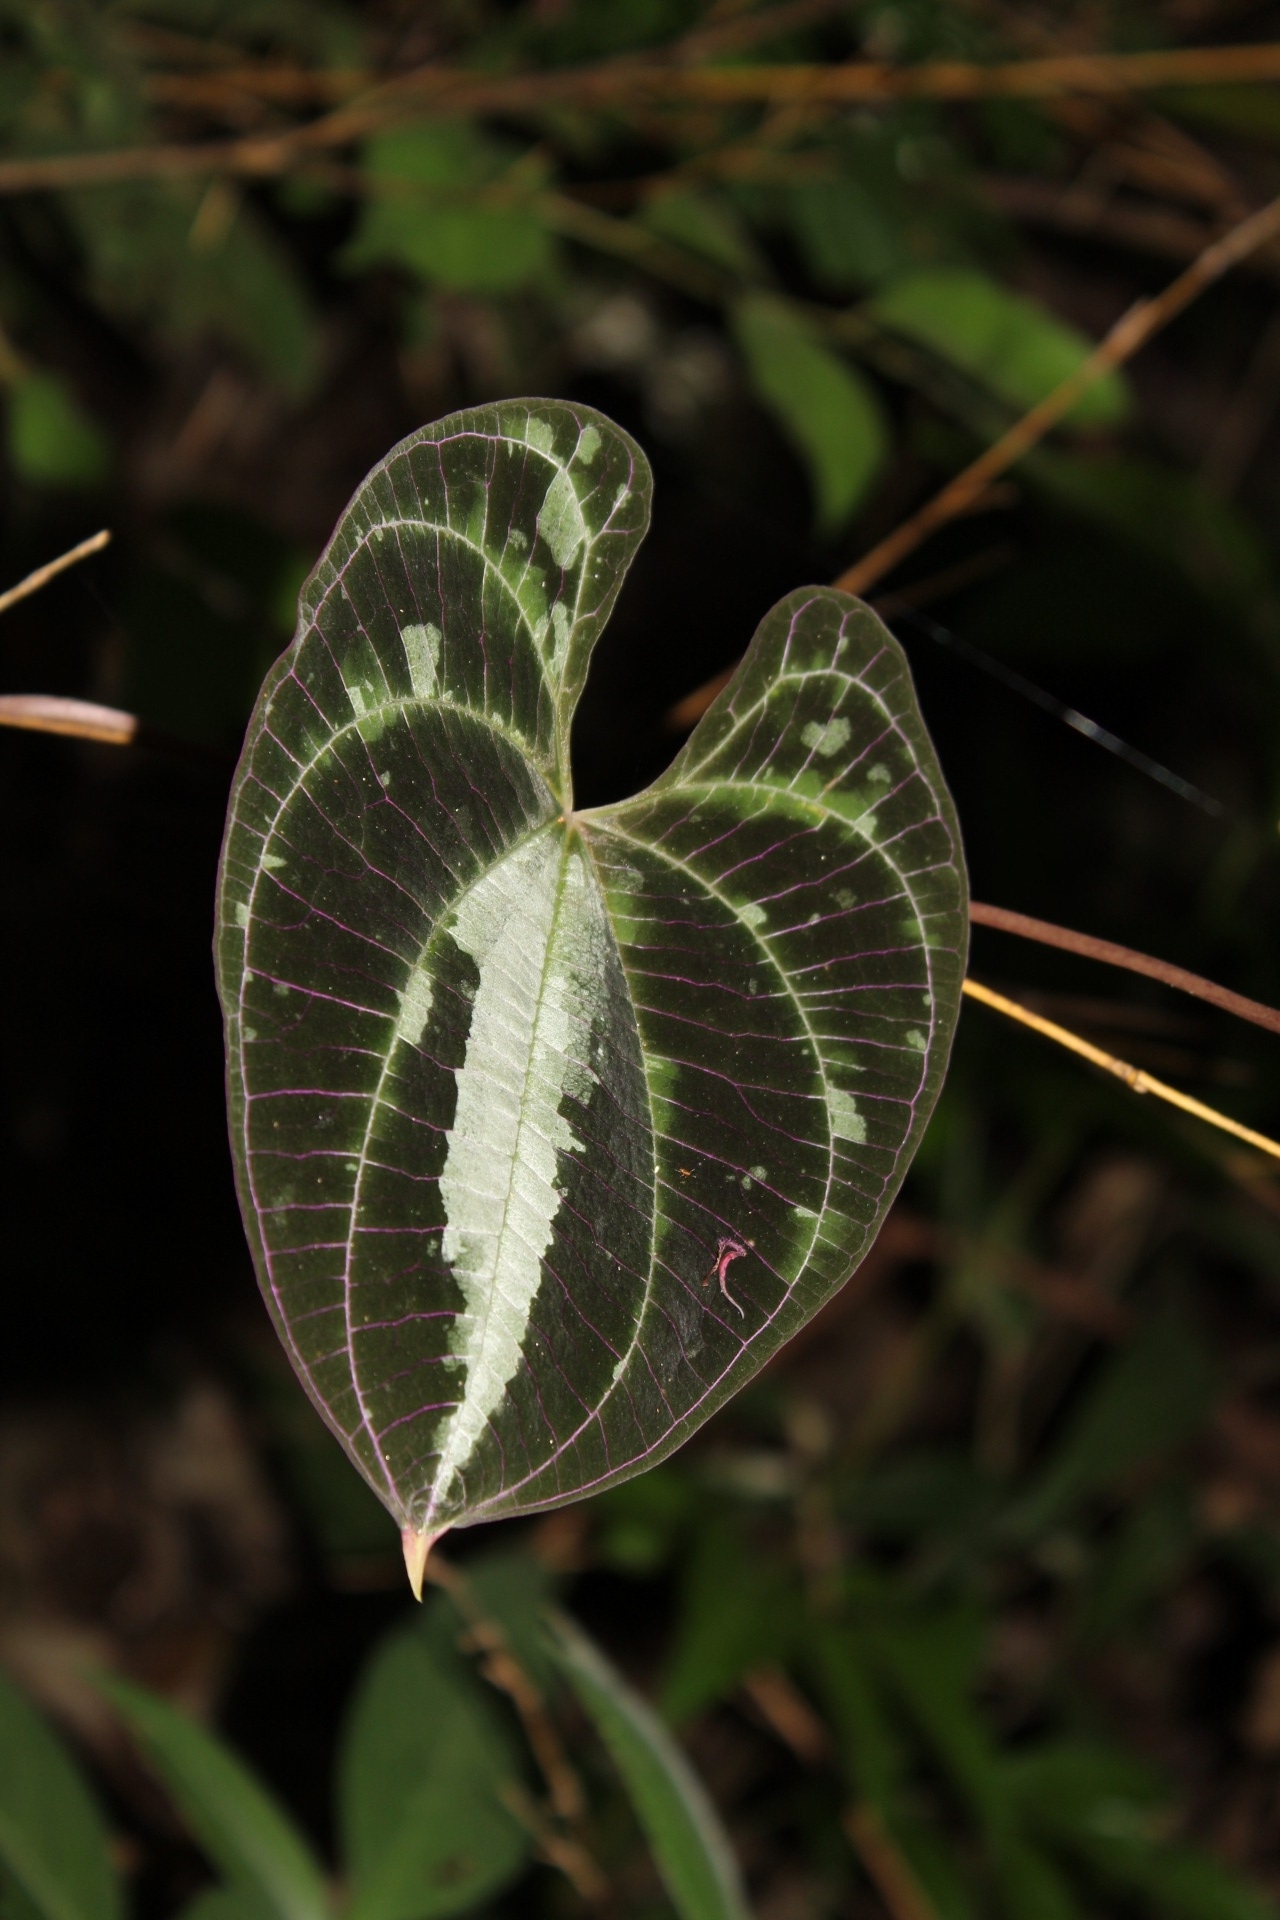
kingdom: Plantae
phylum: Tracheophyta
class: Liliopsida
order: Dioscoreales
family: Dioscoreaceae
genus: Dioscorea
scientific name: Dioscorea dodecaneura
